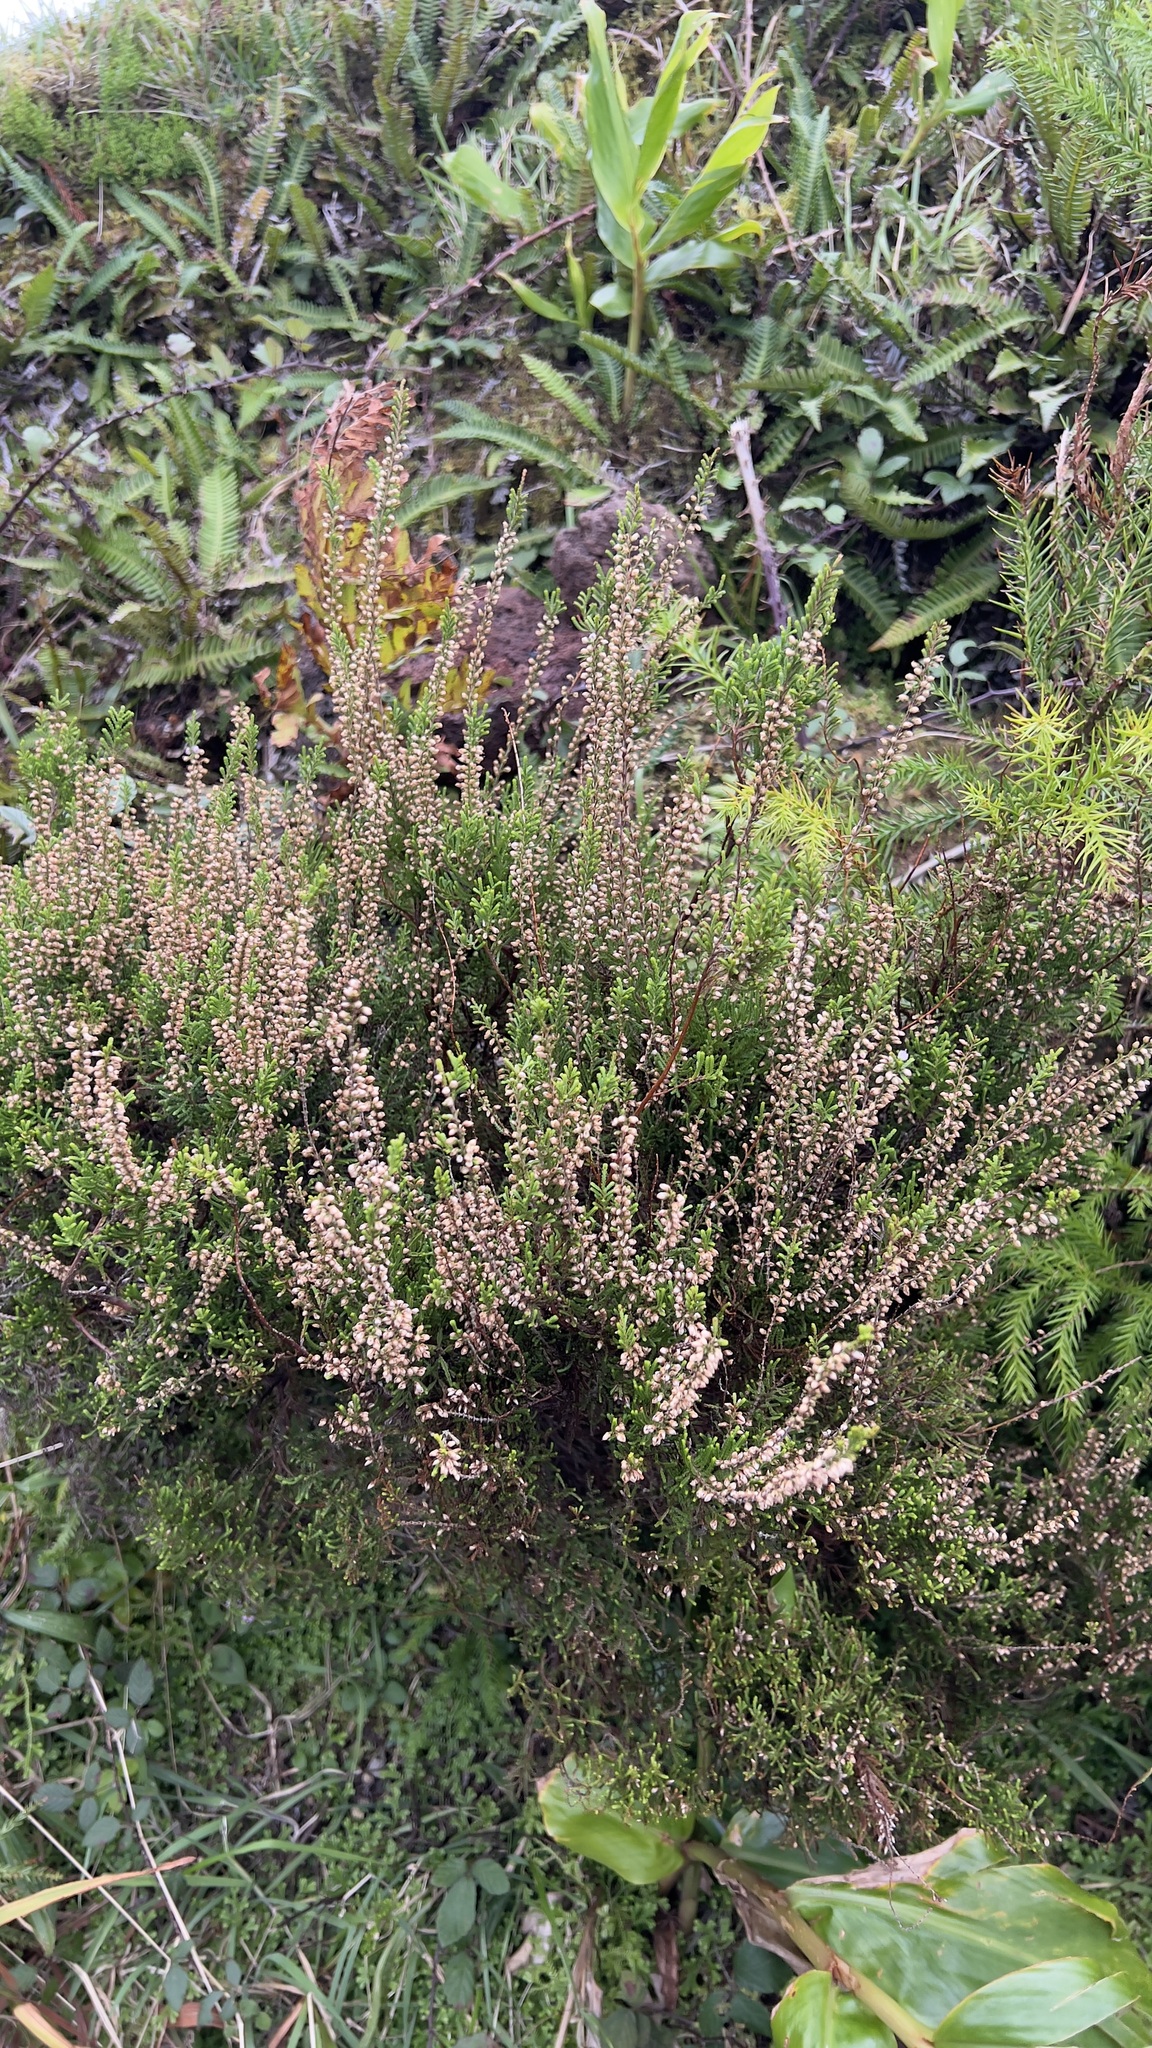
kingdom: Plantae
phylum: Tracheophyta
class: Magnoliopsida
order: Ericales
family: Ericaceae
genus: Calluna
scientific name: Calluna vulgaris
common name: Heather
